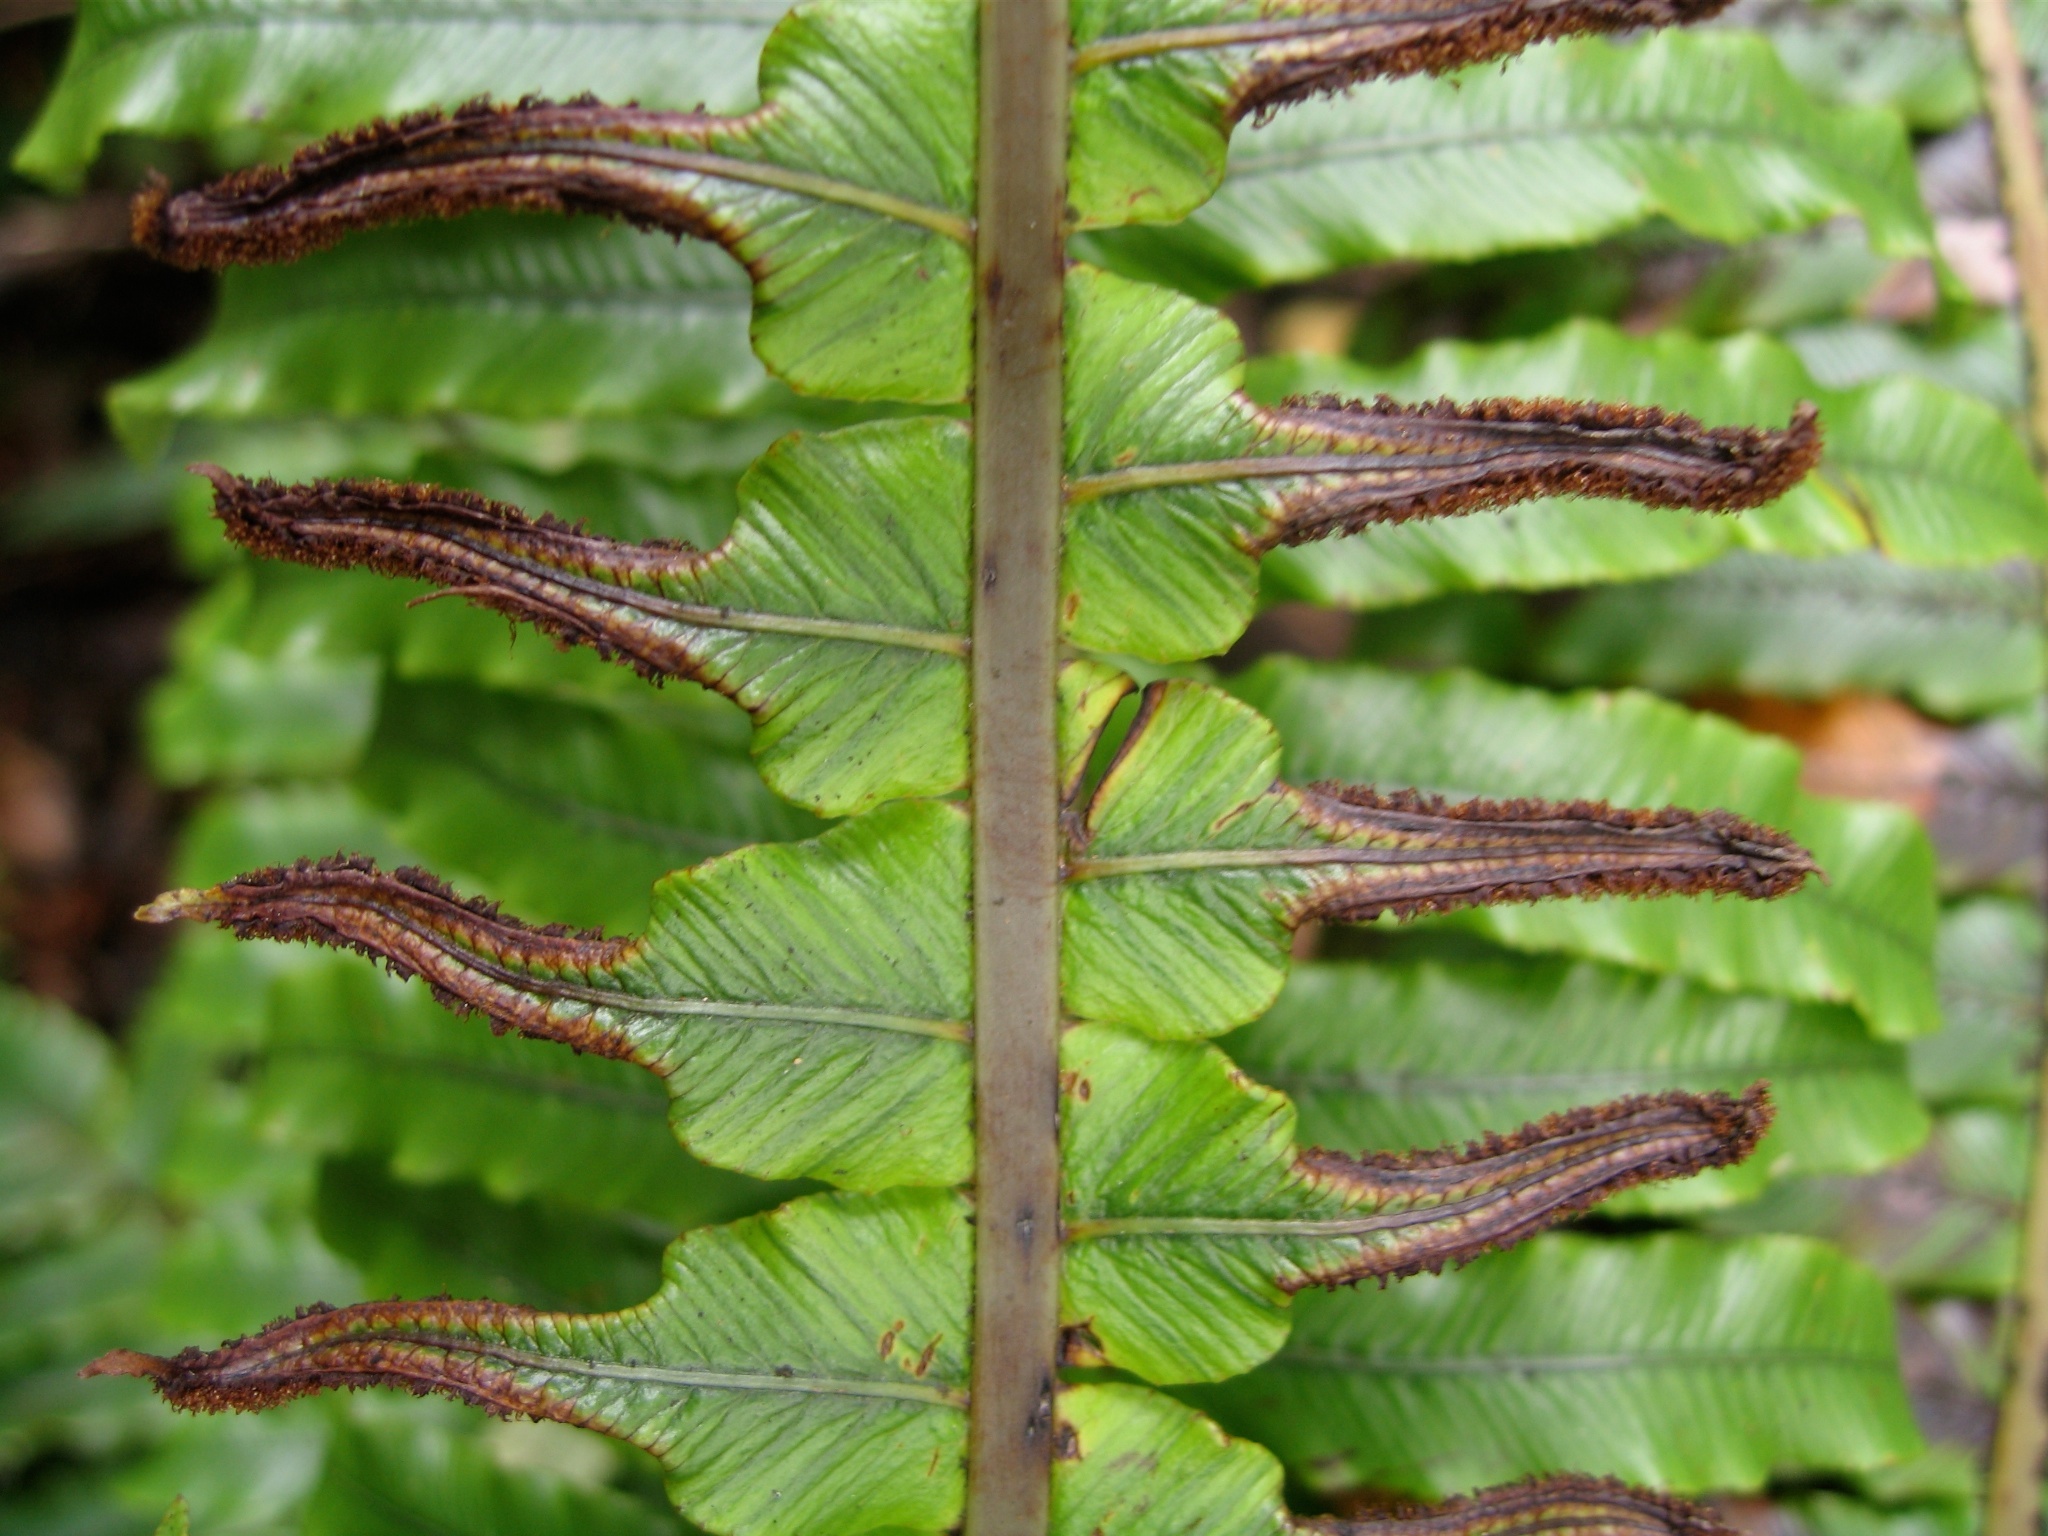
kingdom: Plantae
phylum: Tracheophyta
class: Polypodiopsida
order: Polypodiales
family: Blechnaceae
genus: Lomaria
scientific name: Lomaria discolor
